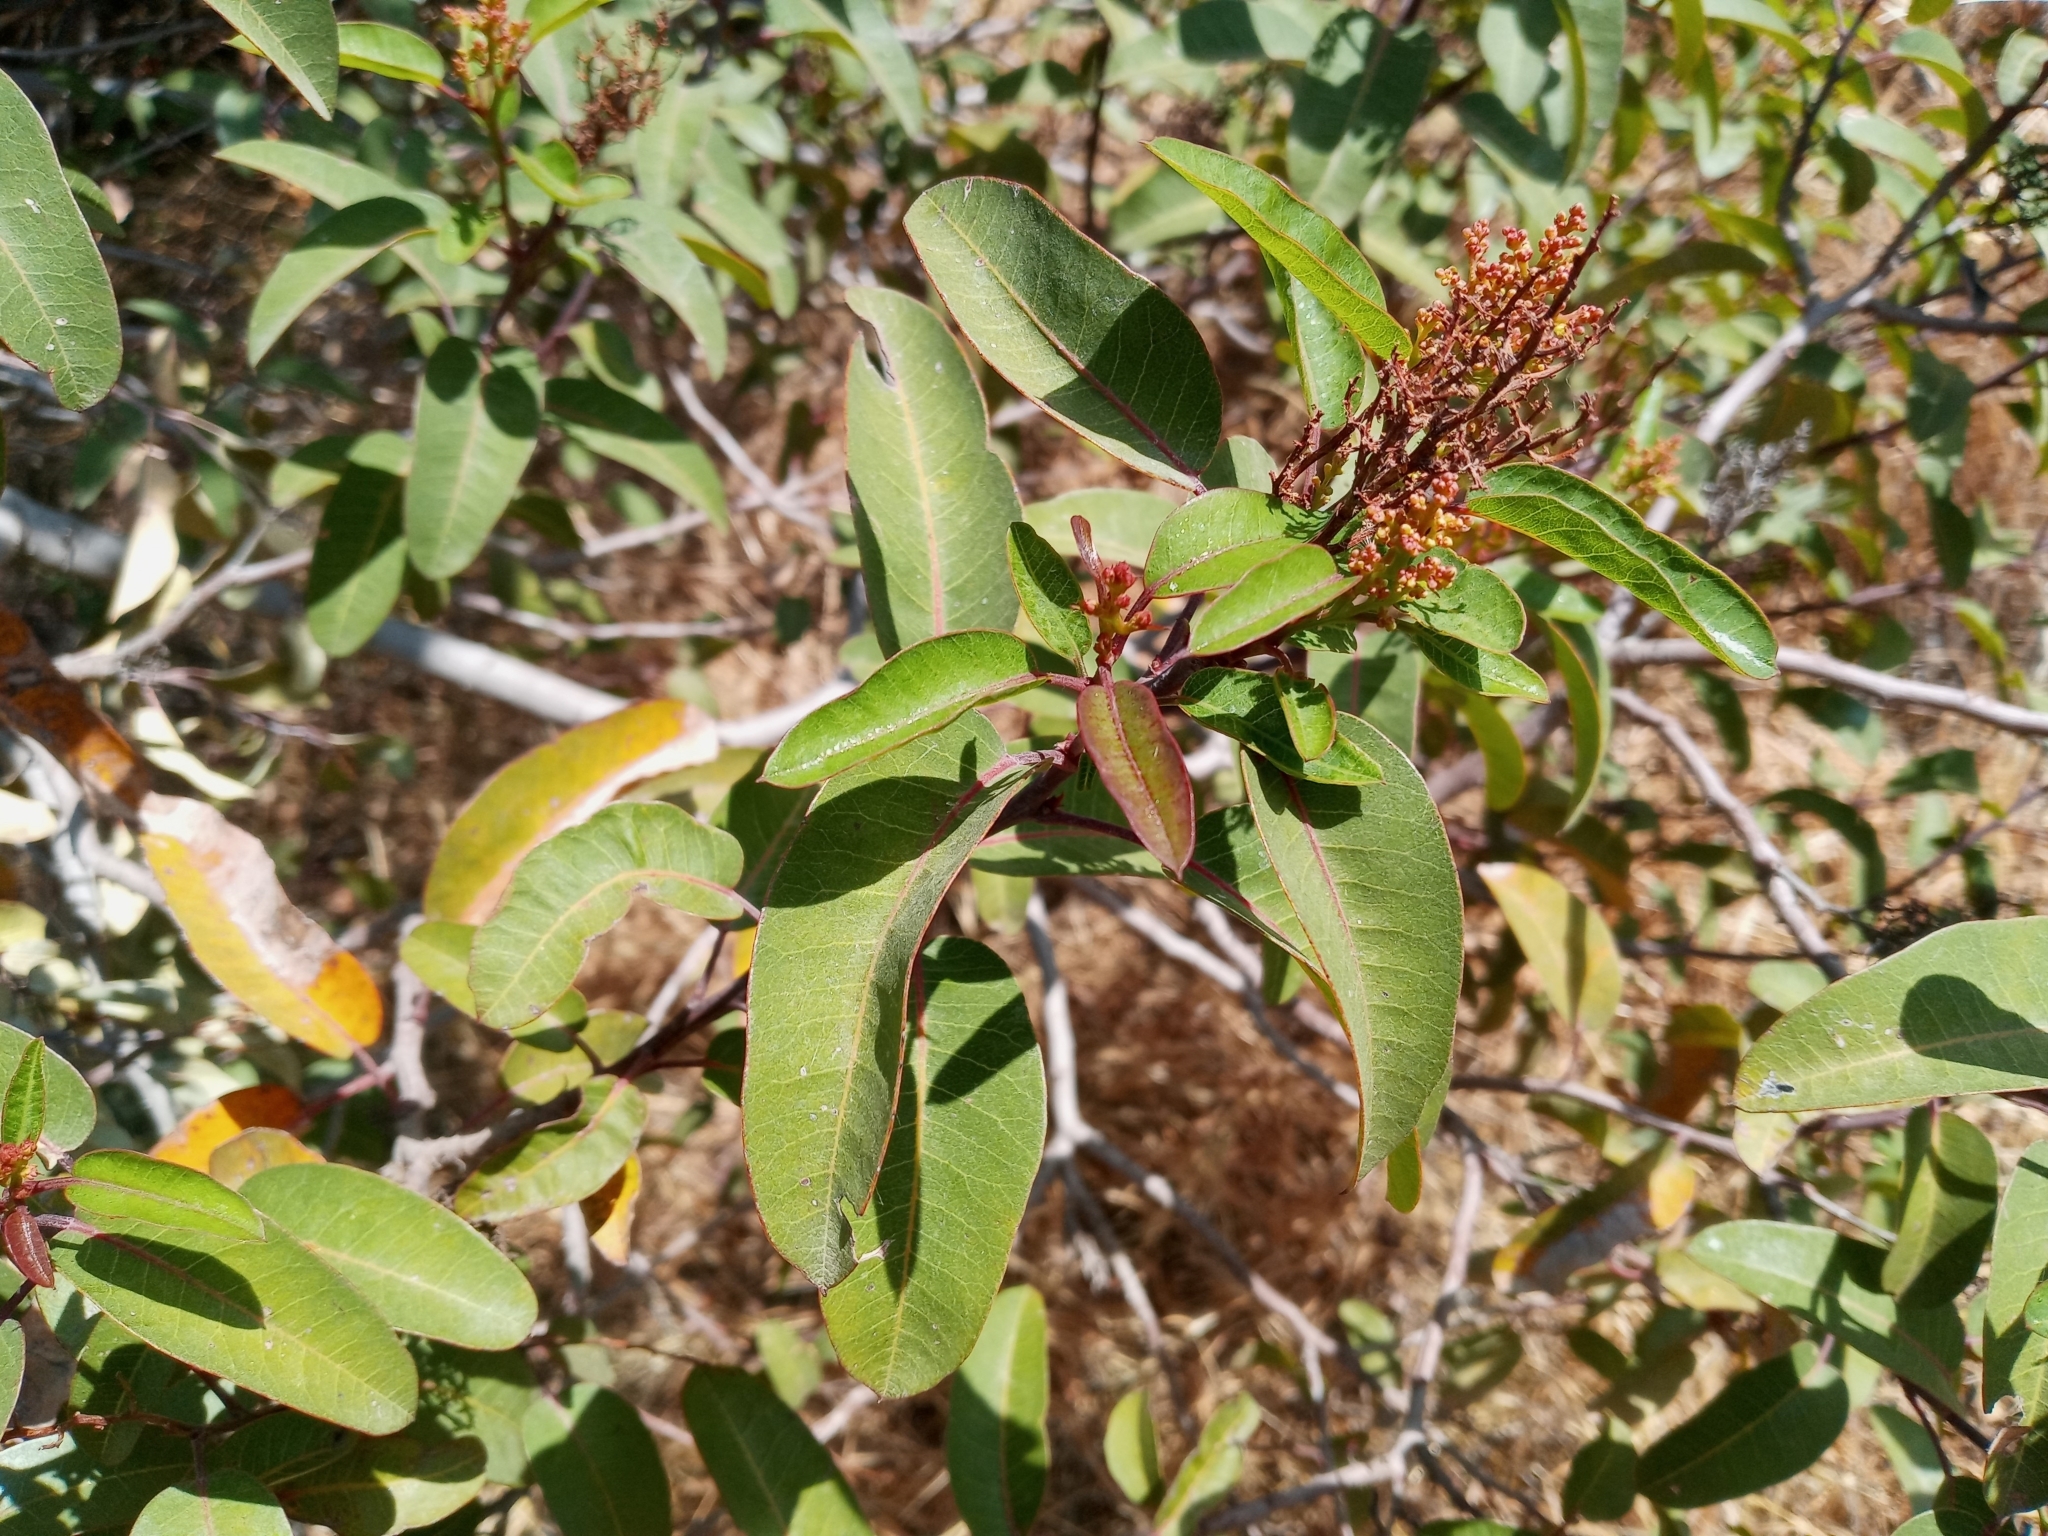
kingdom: Plantae
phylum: Tracheophyta
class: Magnoliopsida
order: Sapindales
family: Anacardiaceae
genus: Malosma
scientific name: Malosma laurina
